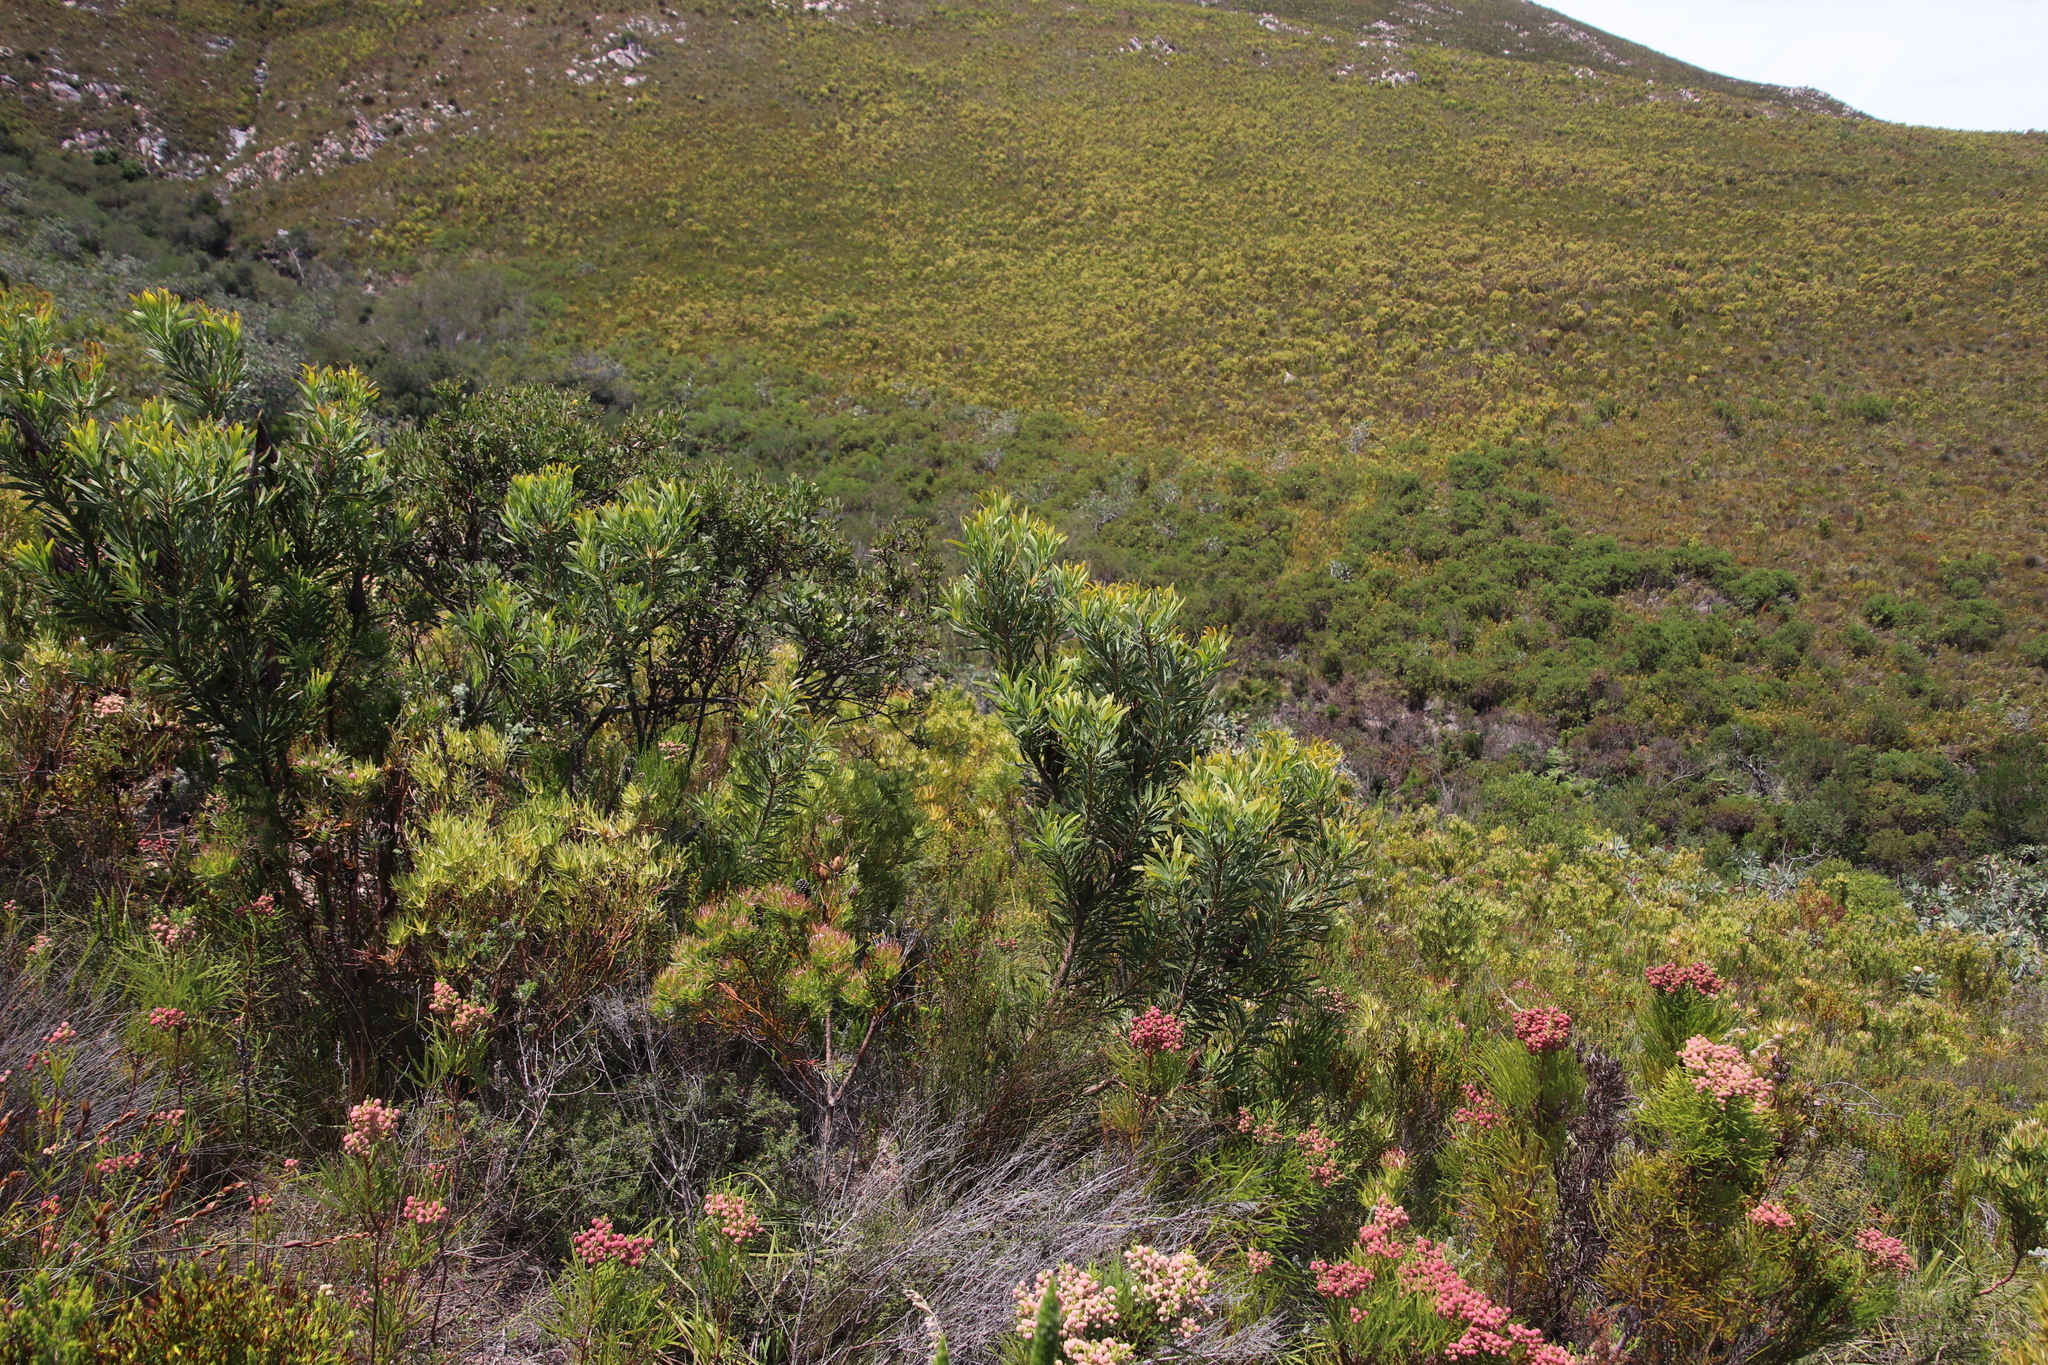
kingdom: Plantae
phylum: Tracheophyta
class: Magnoliopsida
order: Proteales
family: Proteaceae
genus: Protea
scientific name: Protea repens
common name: Sugarbush
